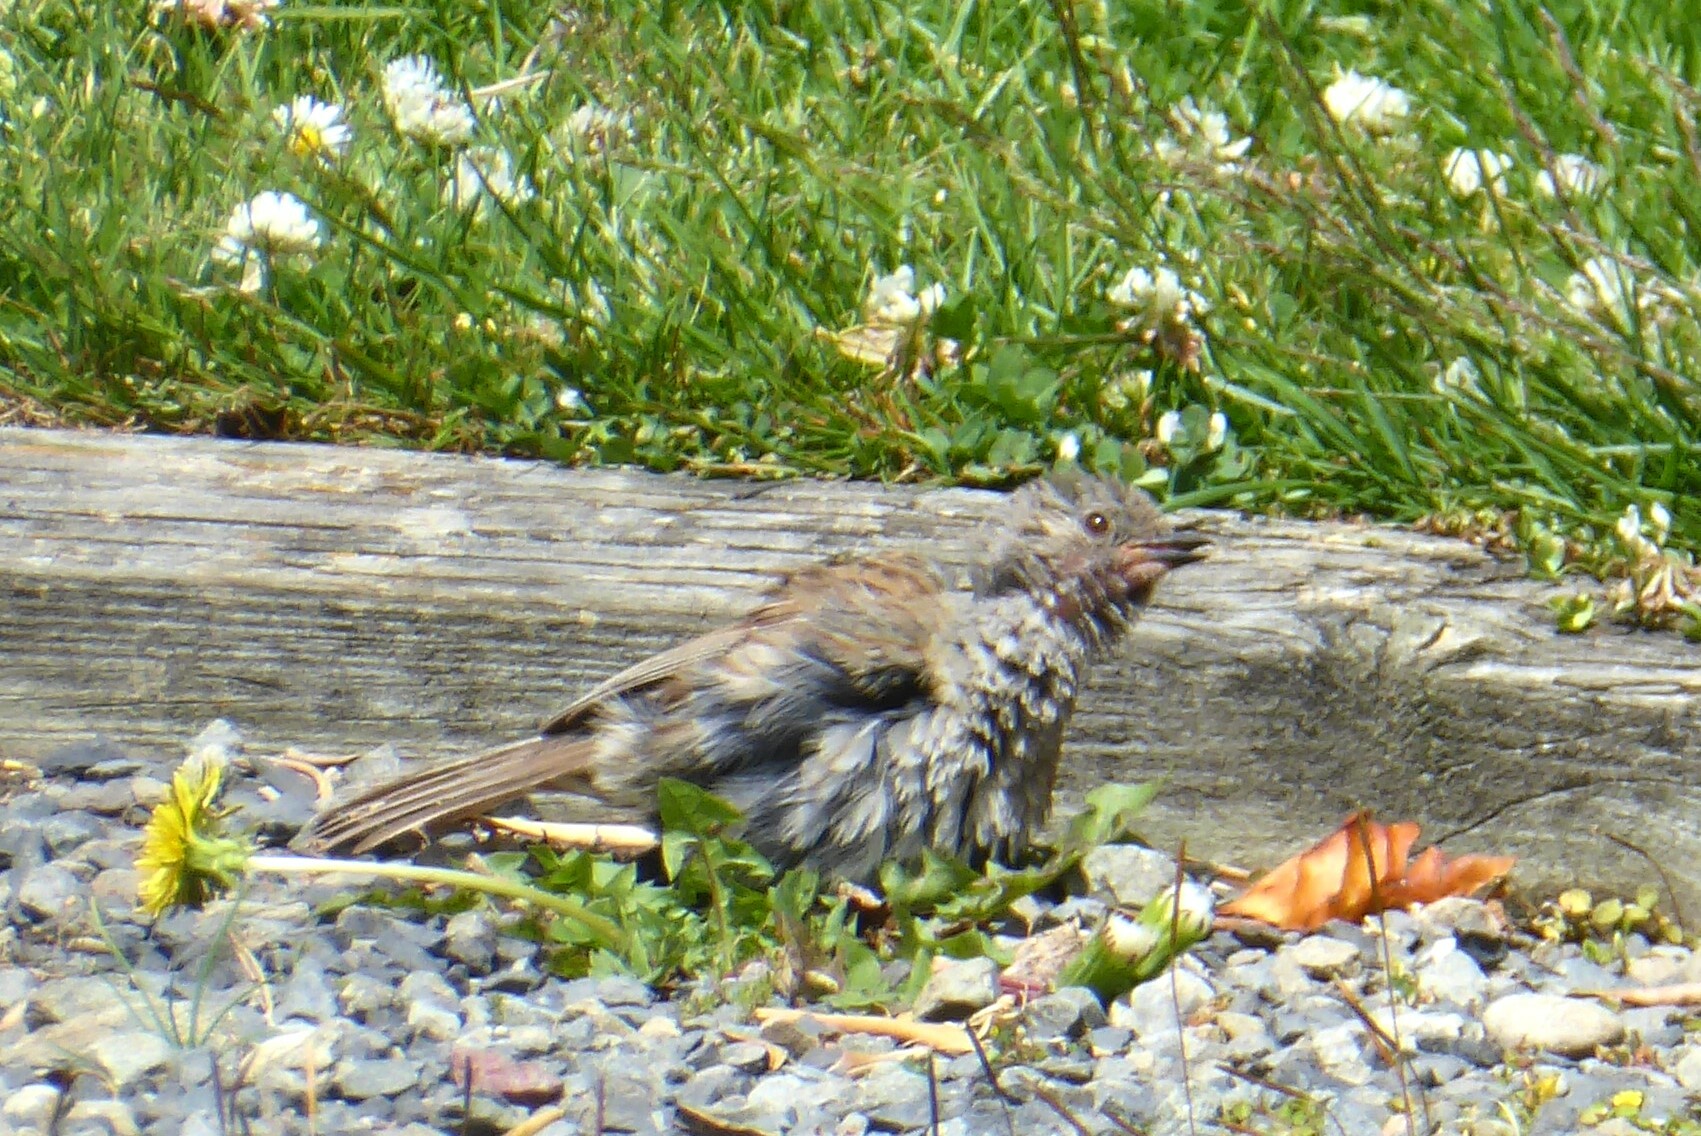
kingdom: Animalia
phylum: Chordata
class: Aves
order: Passeriformes
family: Prunellidae
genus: Prunella
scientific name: Prunella modularis
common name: Dunnock
